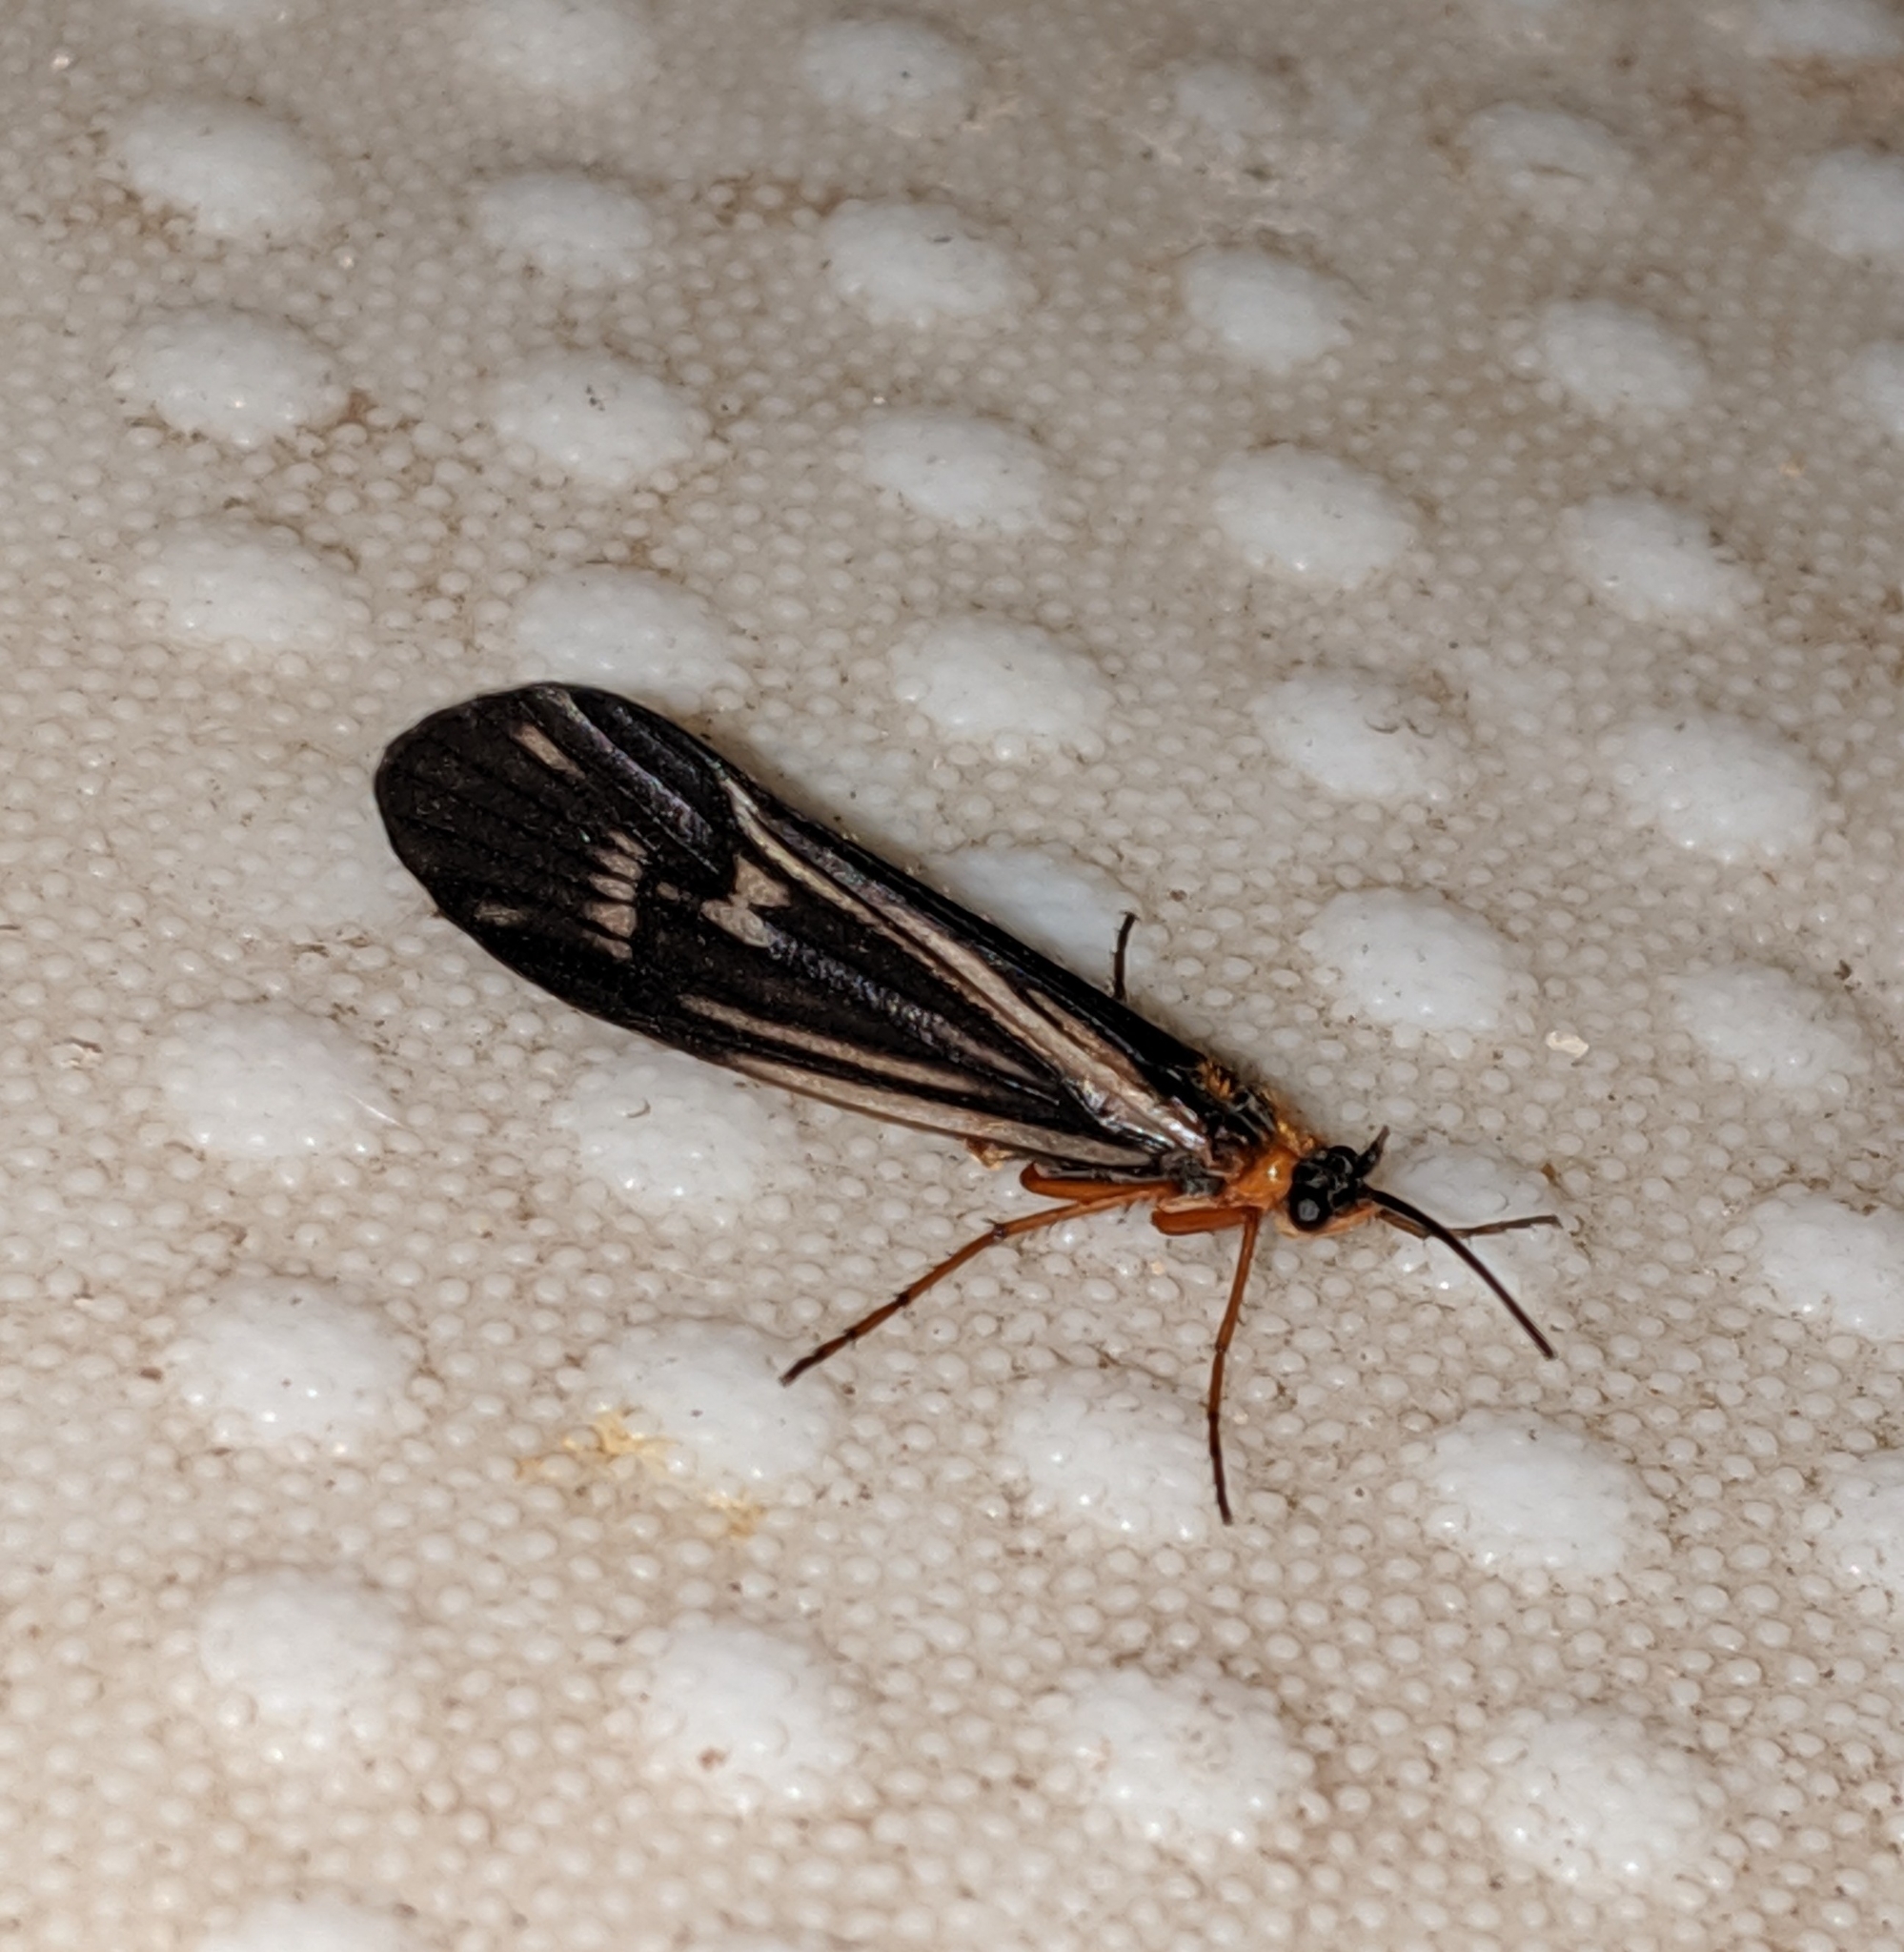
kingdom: Animalia
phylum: Arthropoda
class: Insecta
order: Trichoptera
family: Limnephilidae
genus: Halesochila
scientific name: Halesochila taylori
